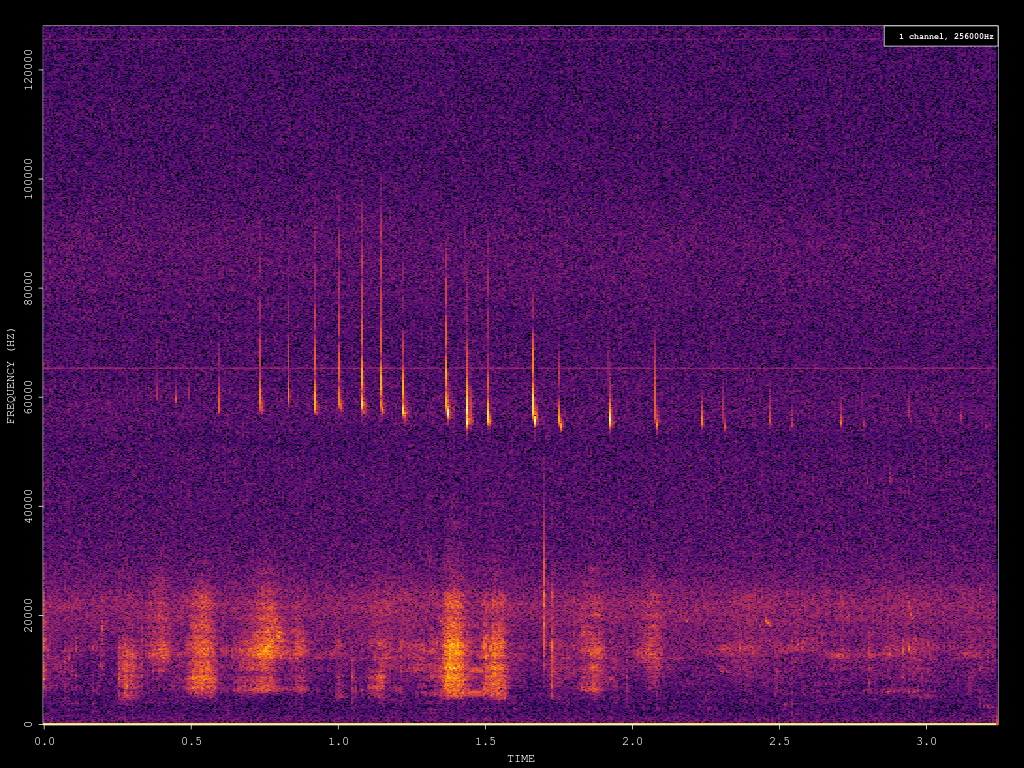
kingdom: Animalia
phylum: Chordata
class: Mammalia
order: Chiroptera
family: Vespertilionidae
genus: Pipistrellus
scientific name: Pipistrellus pygmaeus
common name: Soprano pipistrelle
